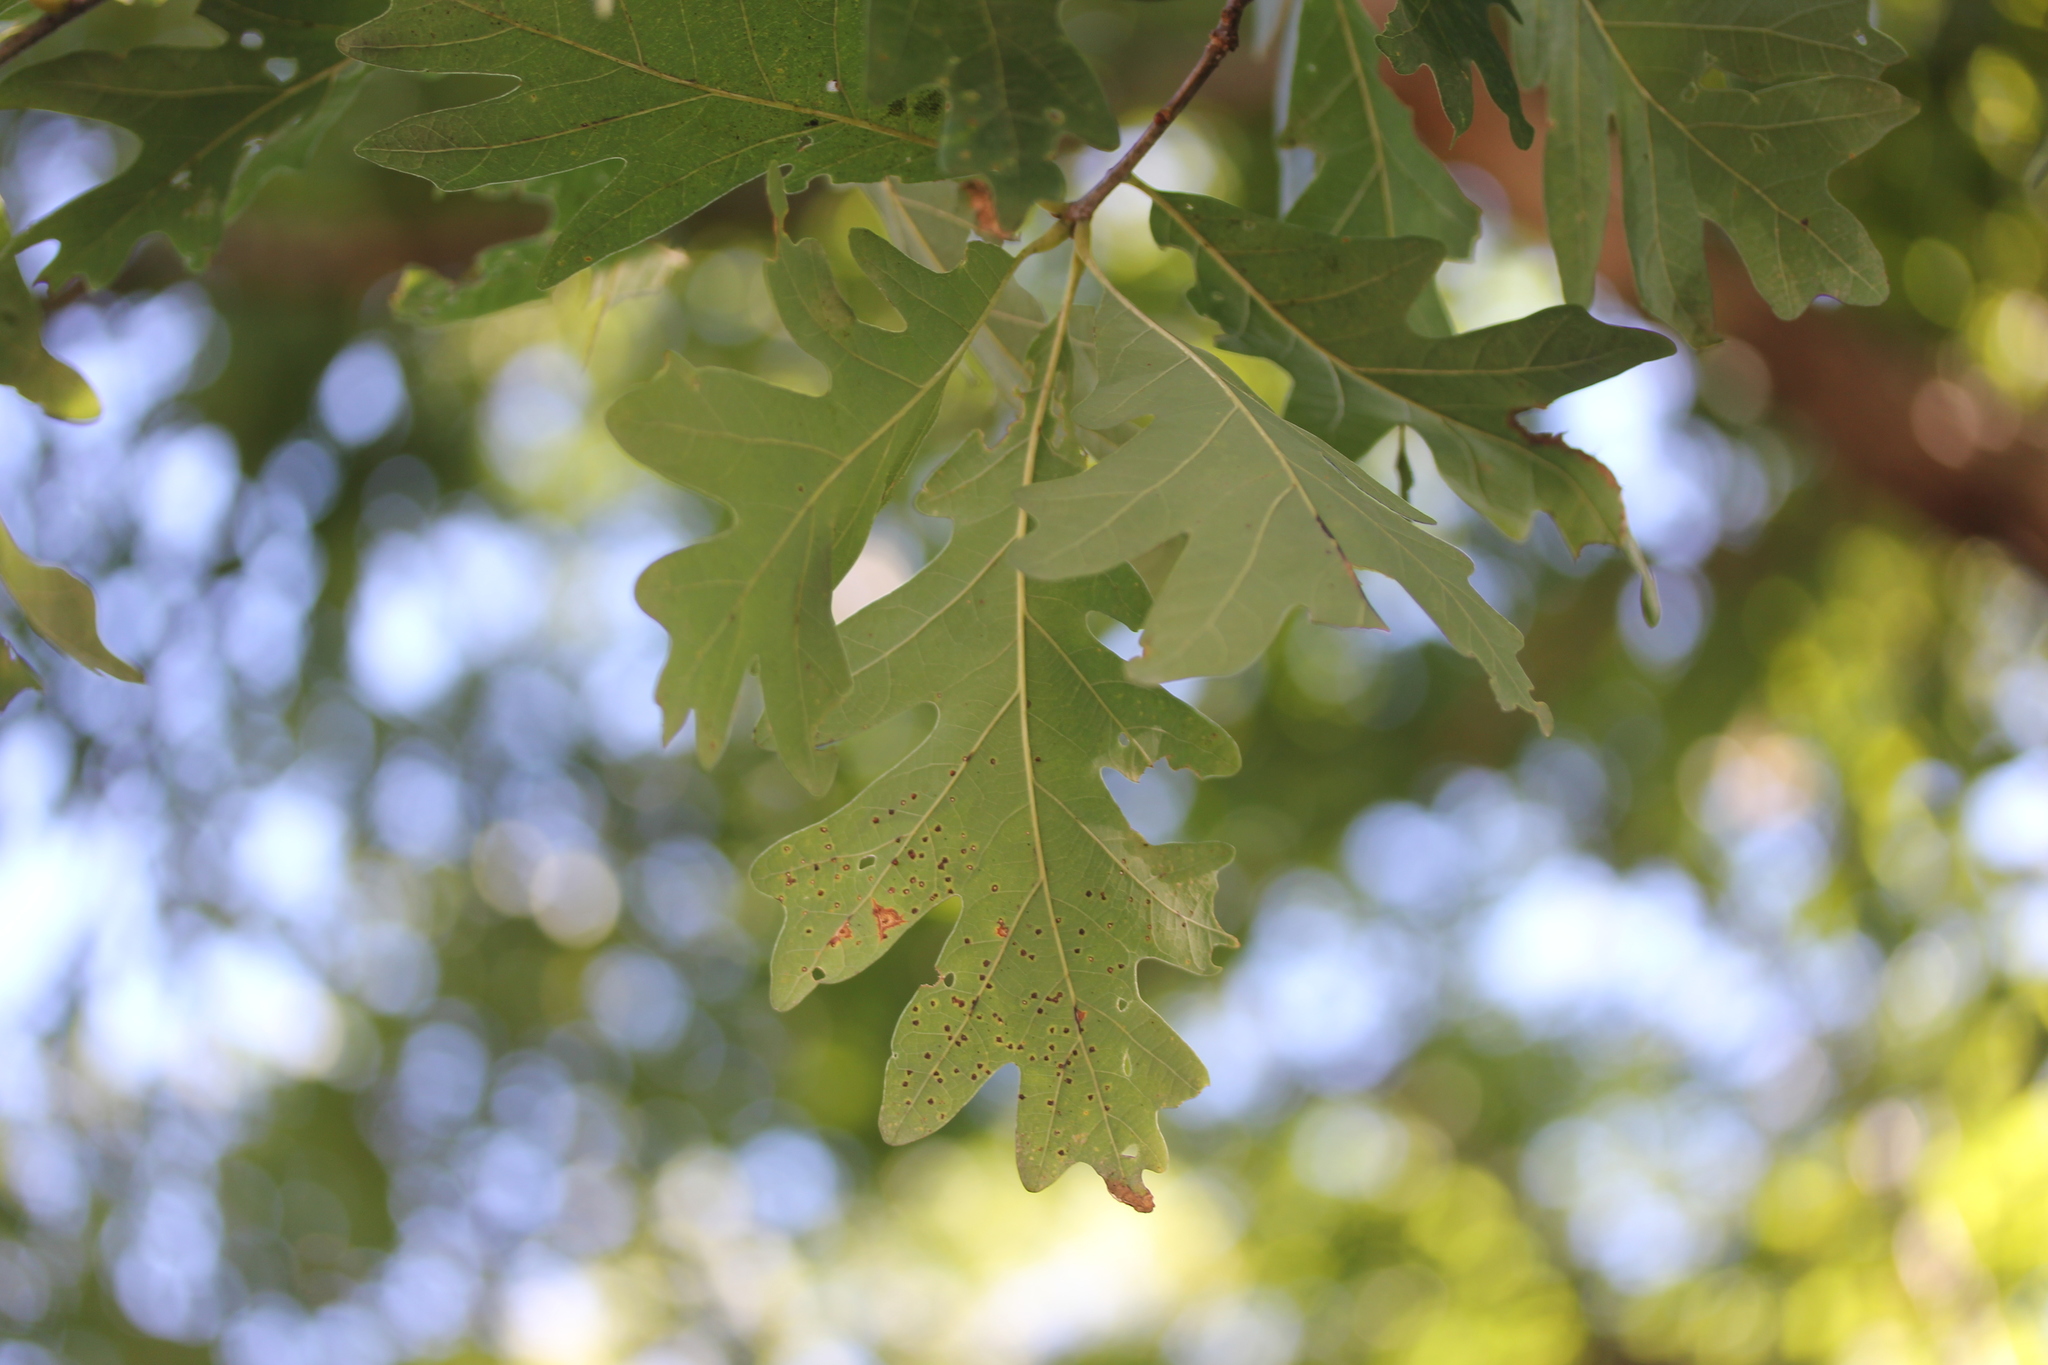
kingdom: Plantae
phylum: Tracheophyta
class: Magnoliopsida
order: Fagales
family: Fagaceae
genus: Quercus
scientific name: Quercus alba
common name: White oak
